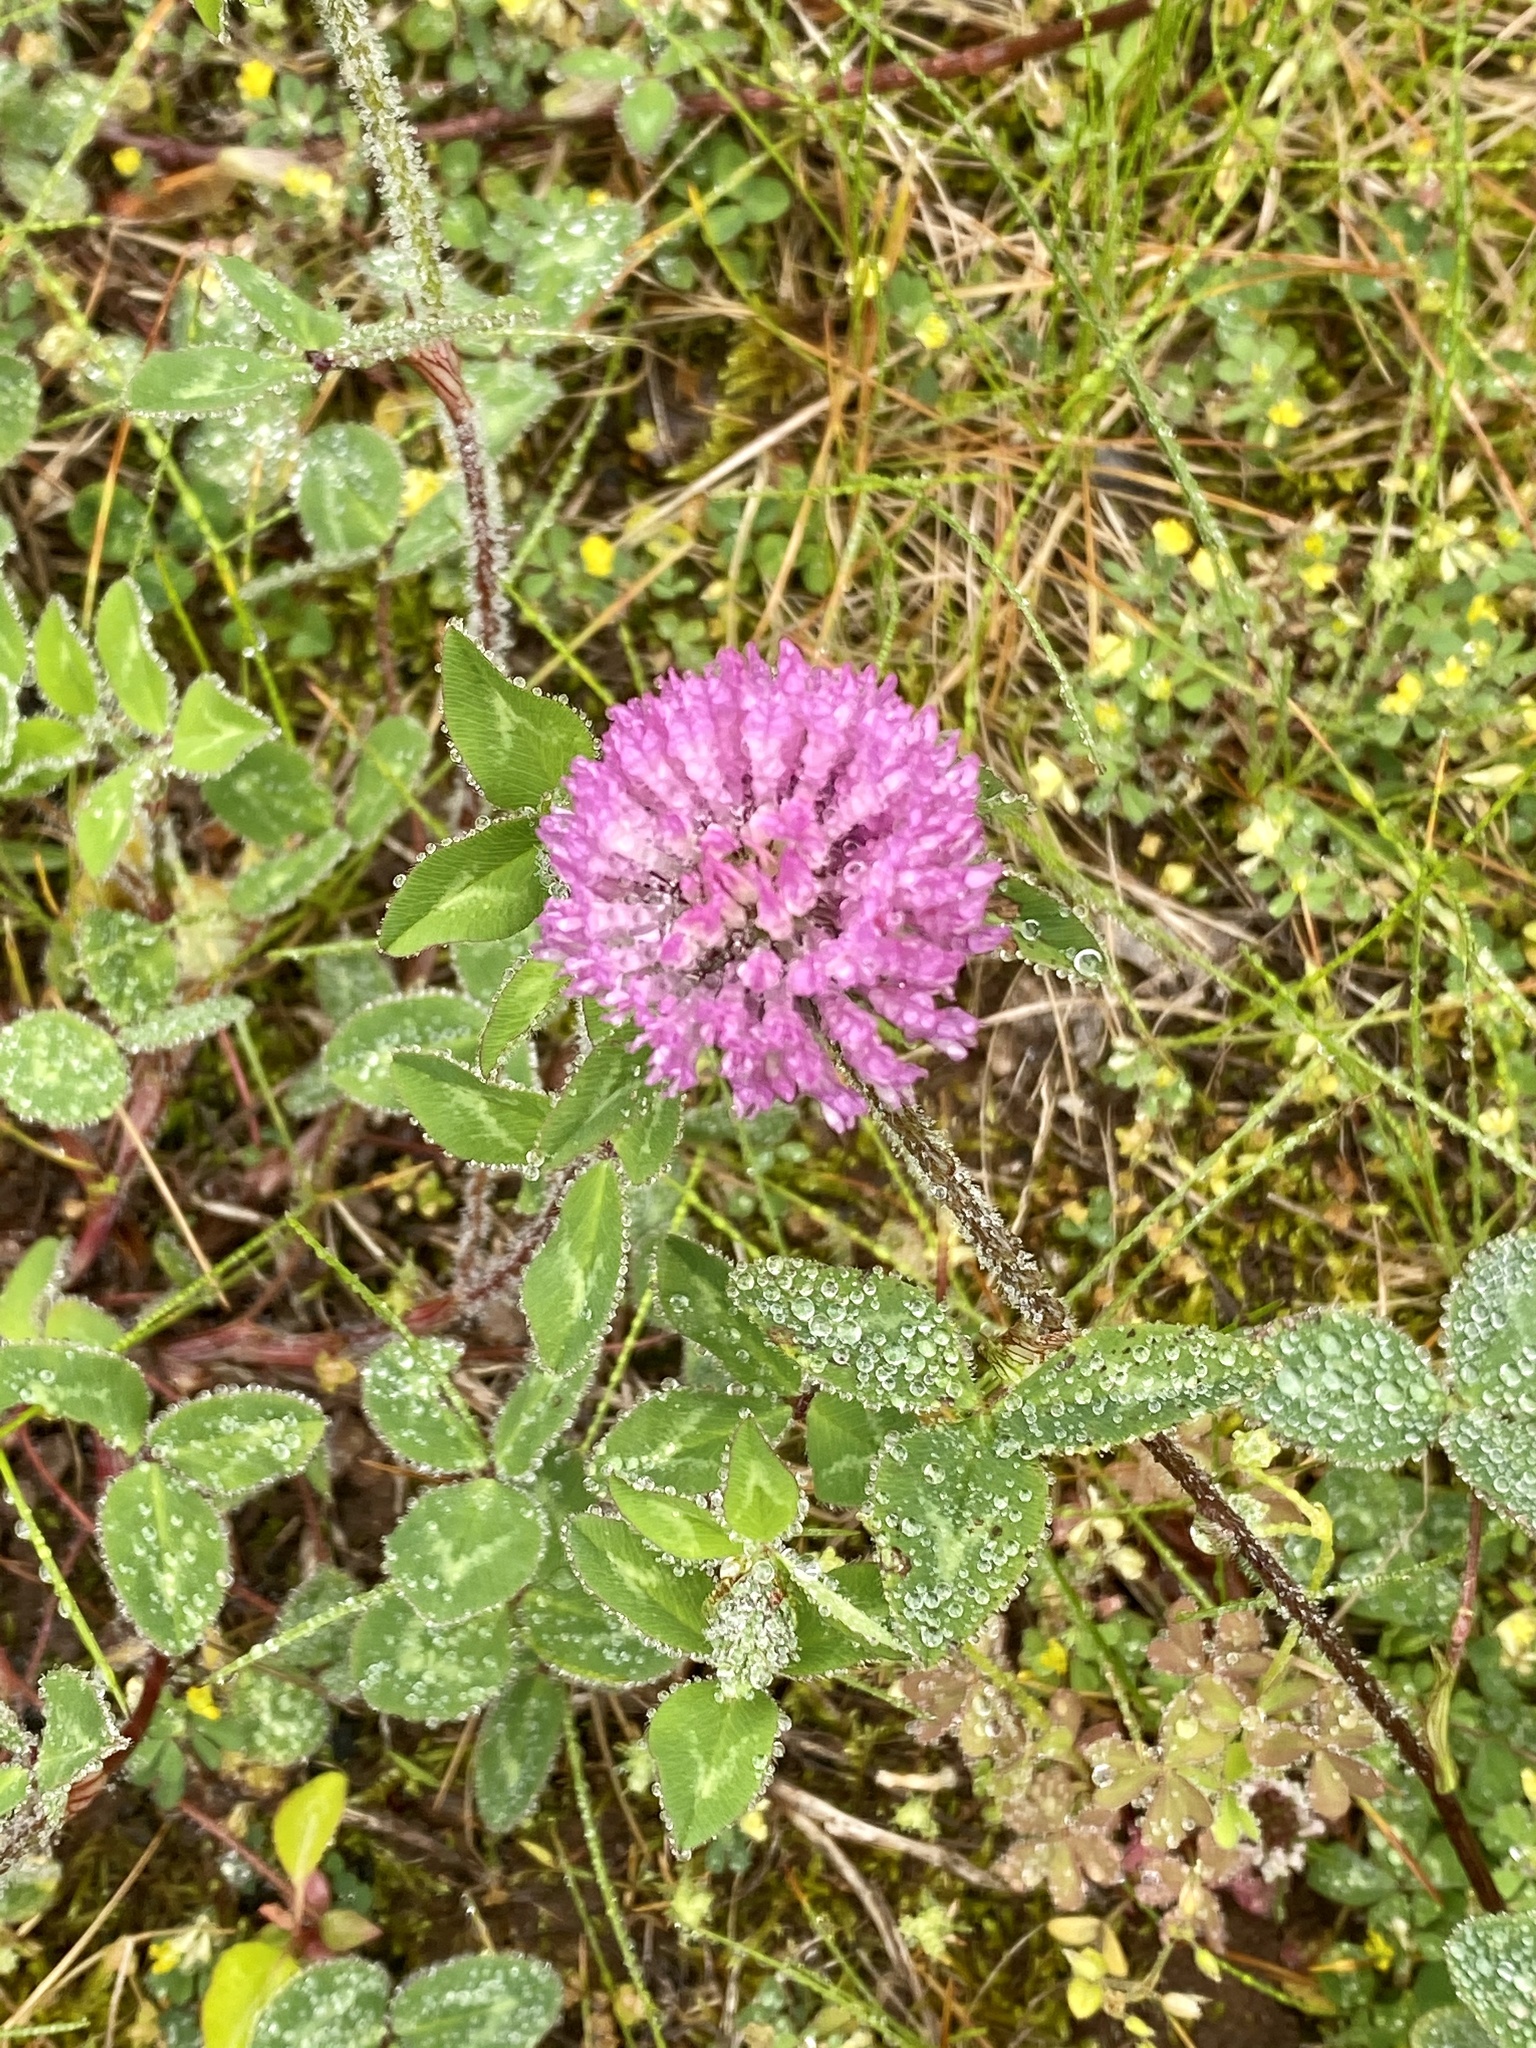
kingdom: Plantae
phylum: Tracheophyta
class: Magnoliopsida
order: Fabales
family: Fabaceae
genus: Trifolium
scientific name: Trifolium pratense
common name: Red clover
